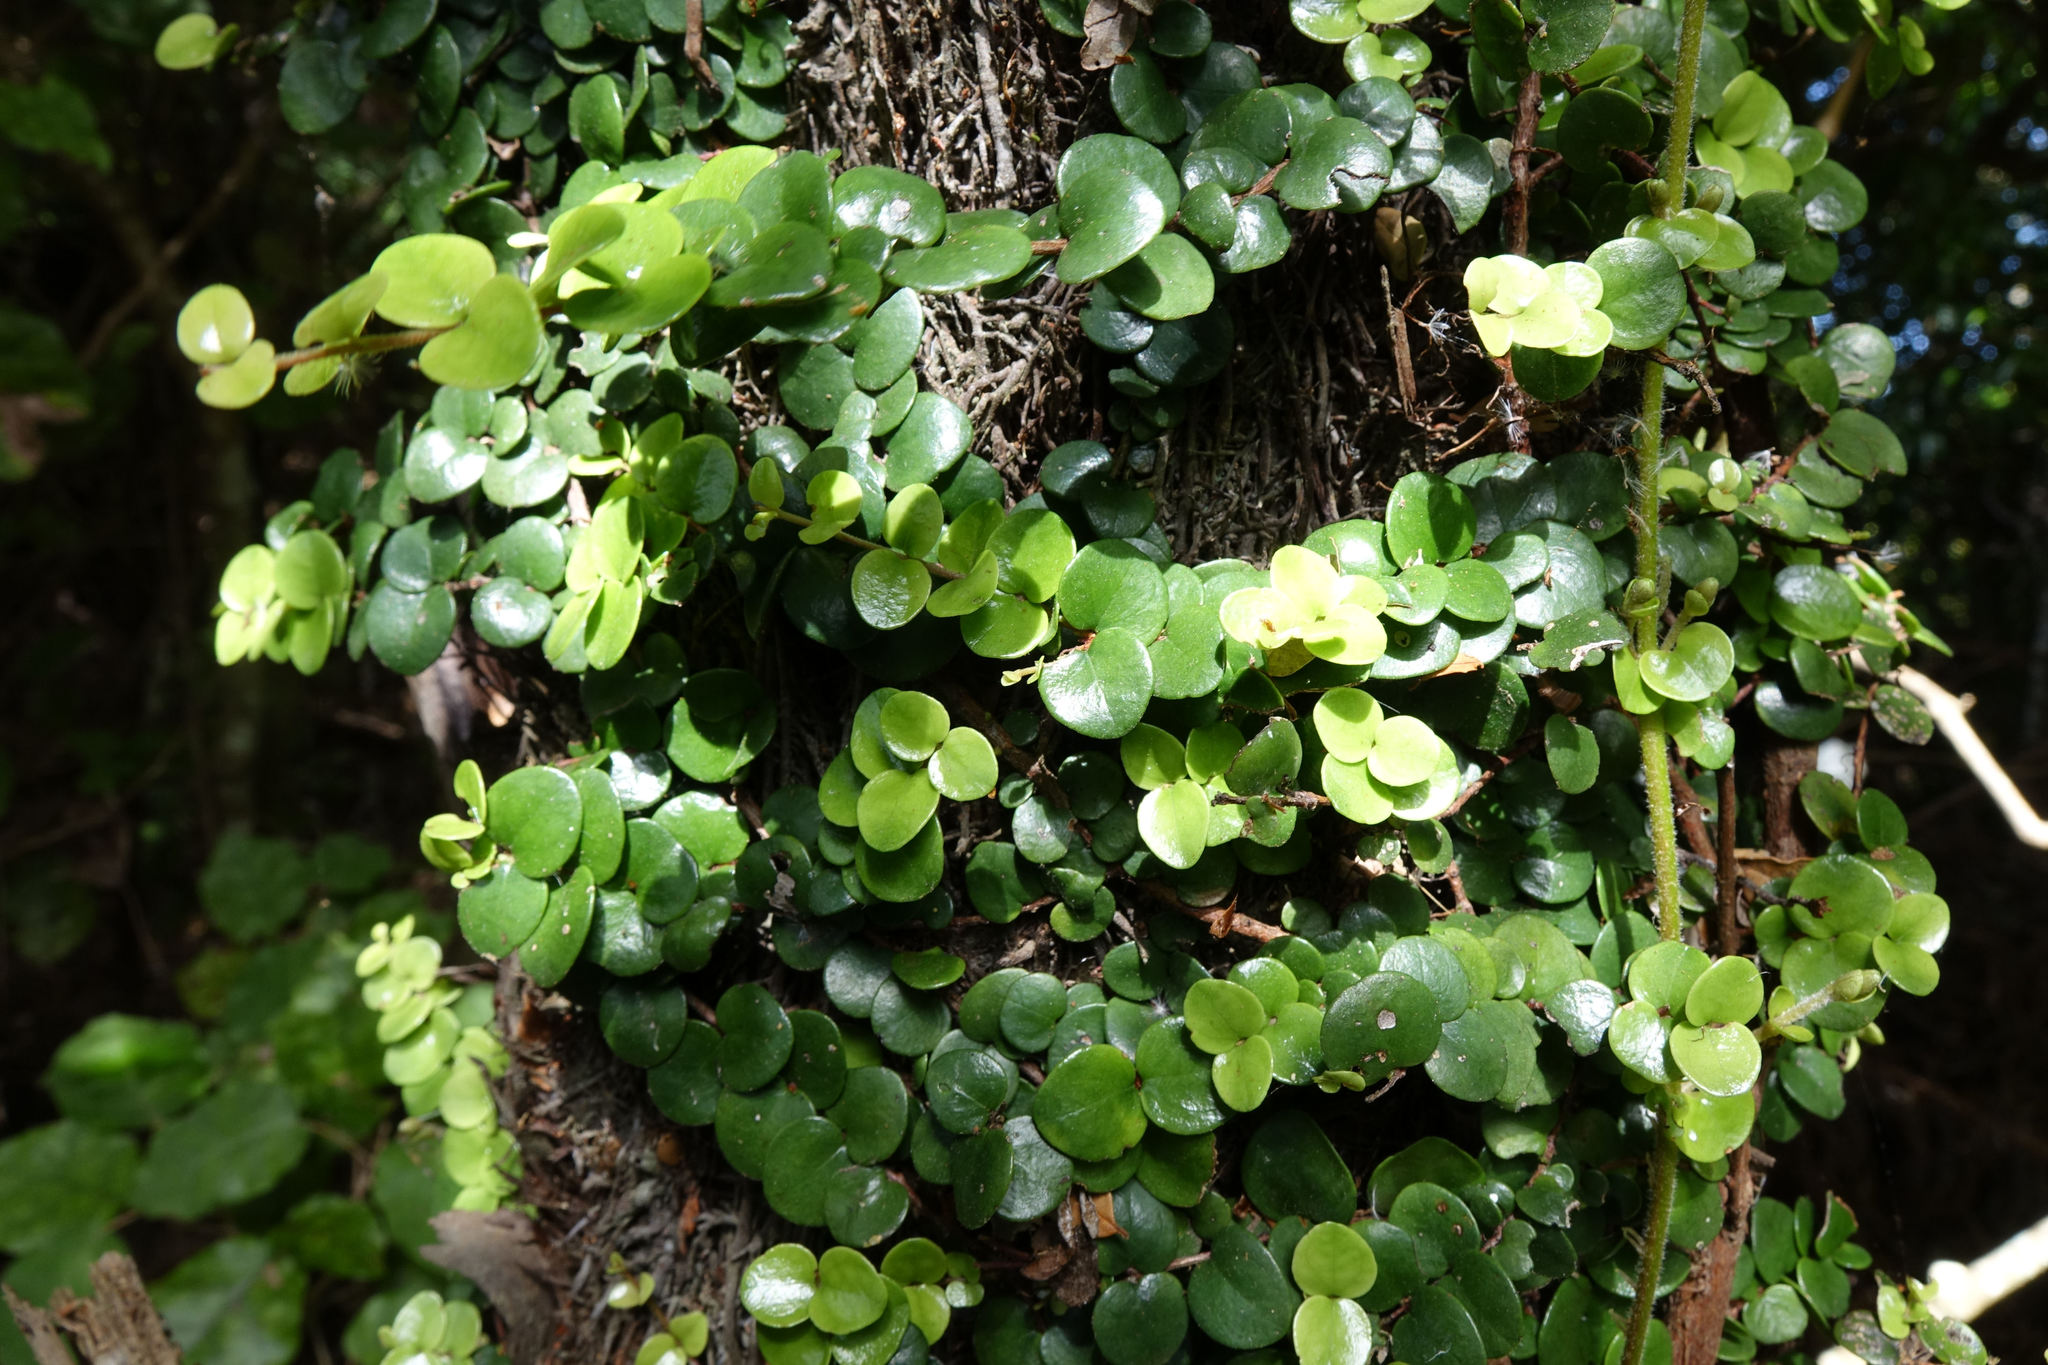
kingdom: Plantae
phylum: Tracheophyta
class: Magnoliopsida
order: Myrtales
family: Myrtaceae
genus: Metrosideros
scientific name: Metrosideros perforata
